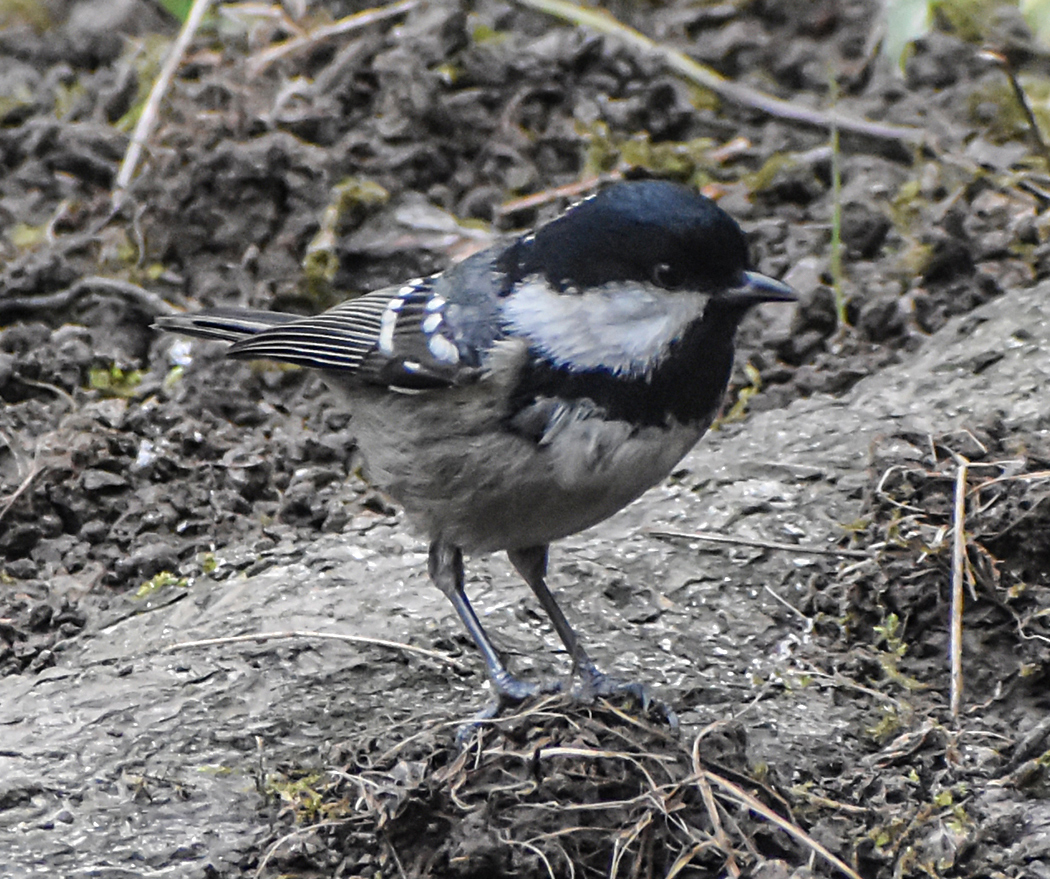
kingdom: Animalia
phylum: Chordata
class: Aves
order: Passeriformes
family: Paridae
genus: Periparus
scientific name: Periparus ater
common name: Coal tit
